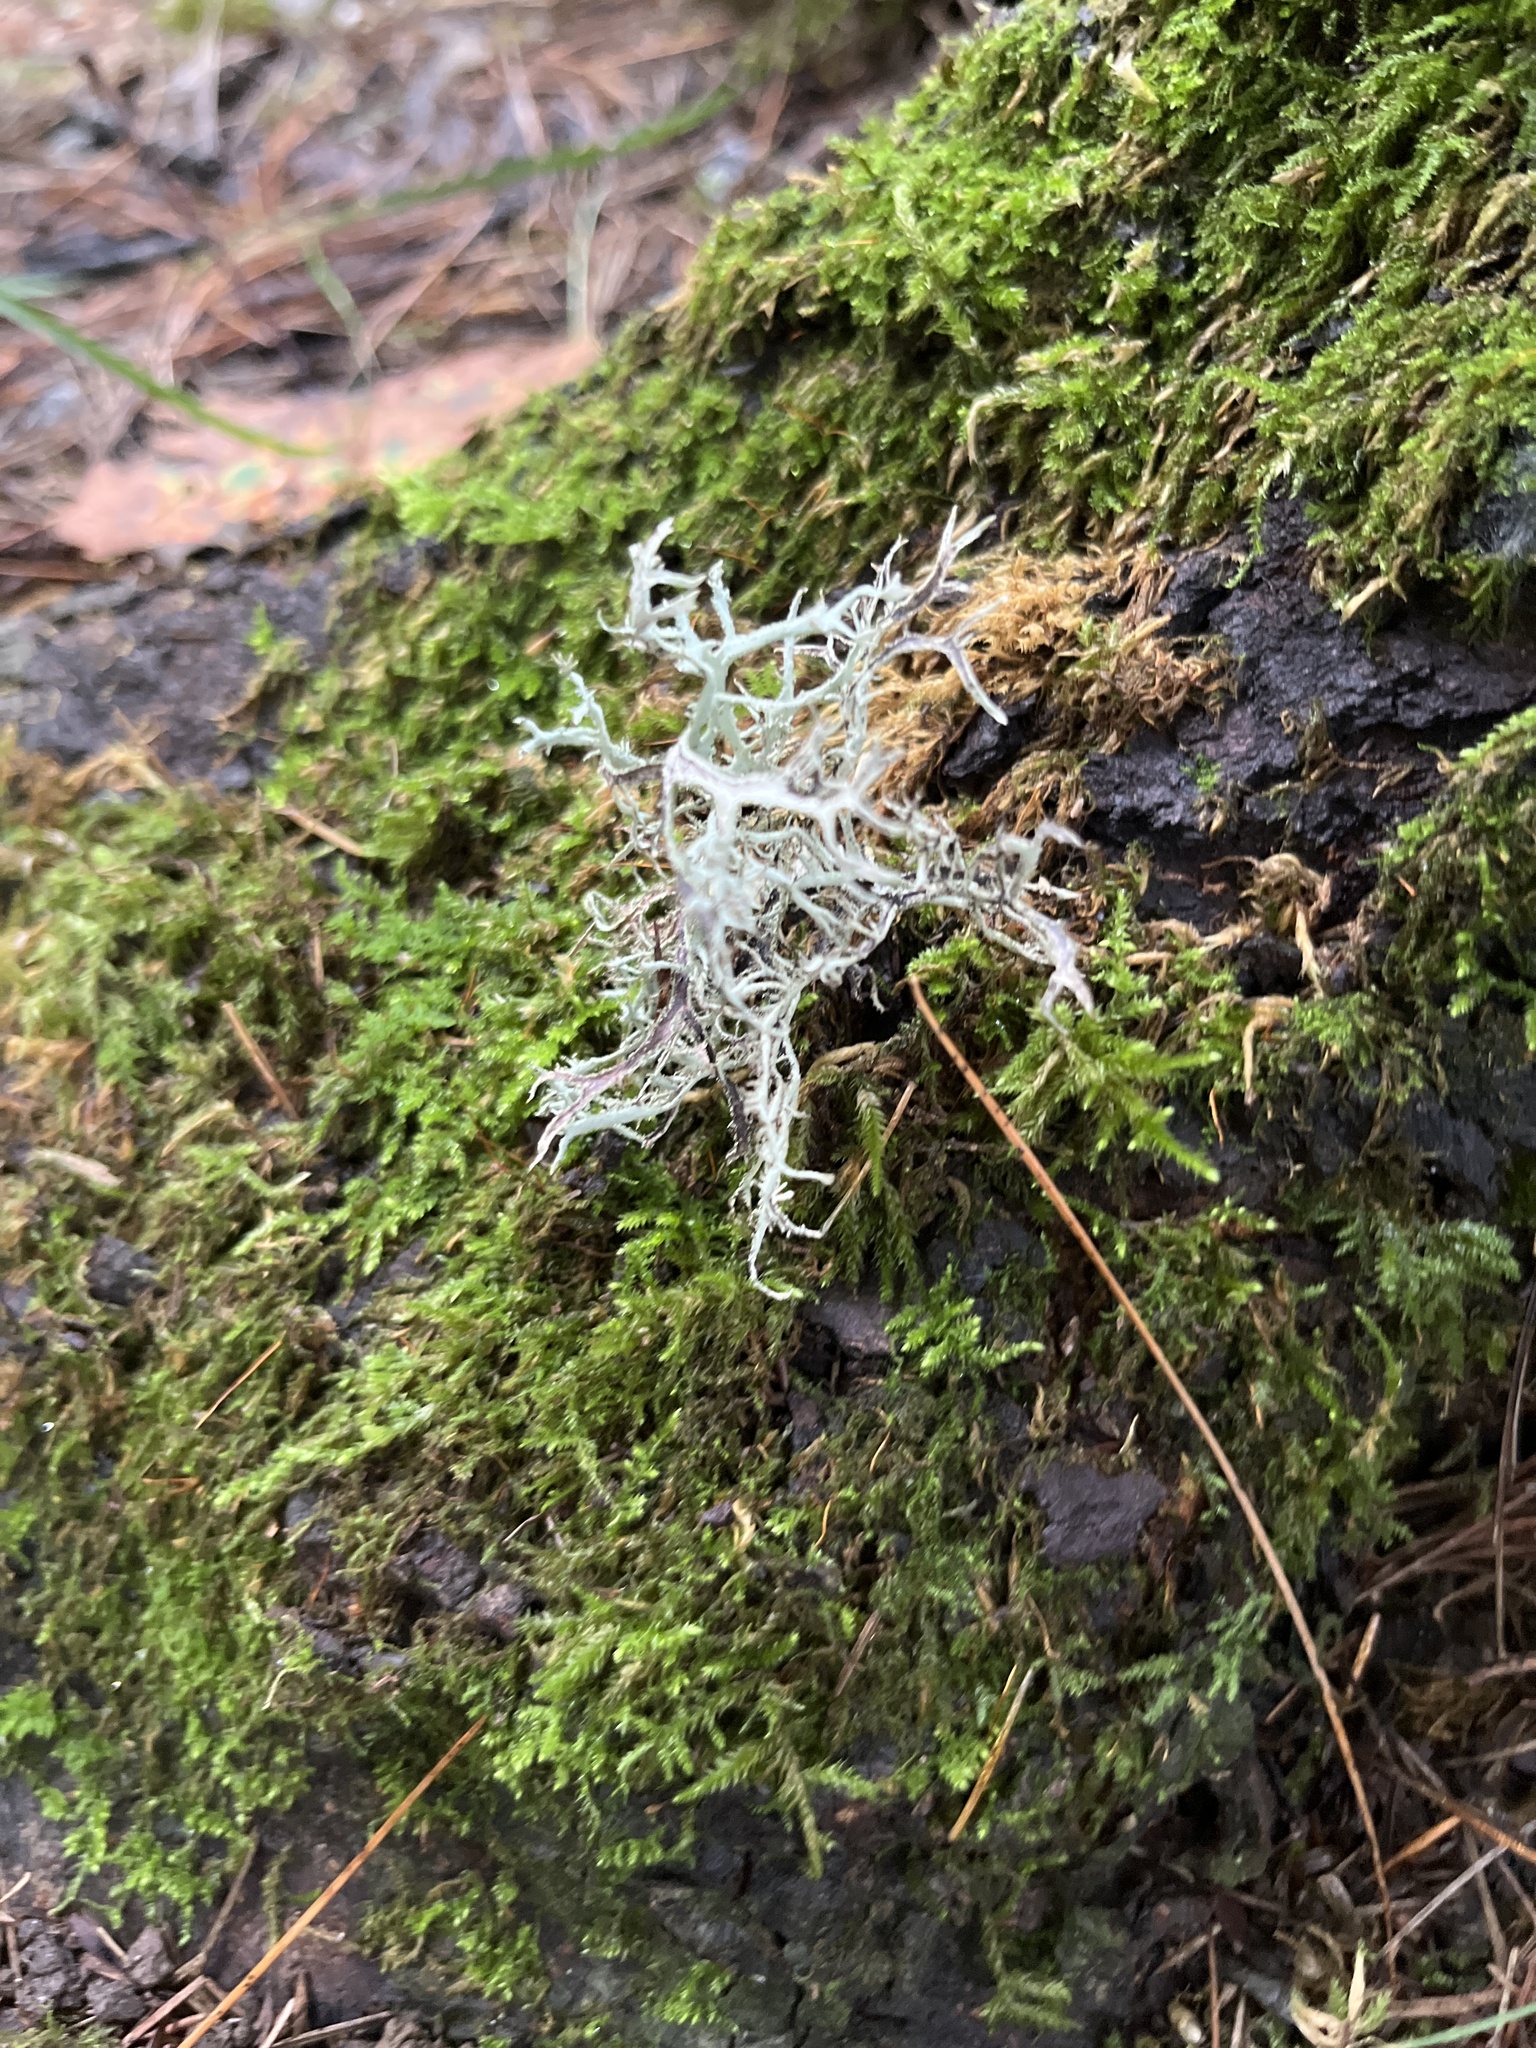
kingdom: Fungi
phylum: Ascomycota
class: Lecanoromycetes
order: Lecanorales
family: Parmeliaceae
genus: Pseudevernia
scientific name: Pseudevernia consocians
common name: Common antler lichen
